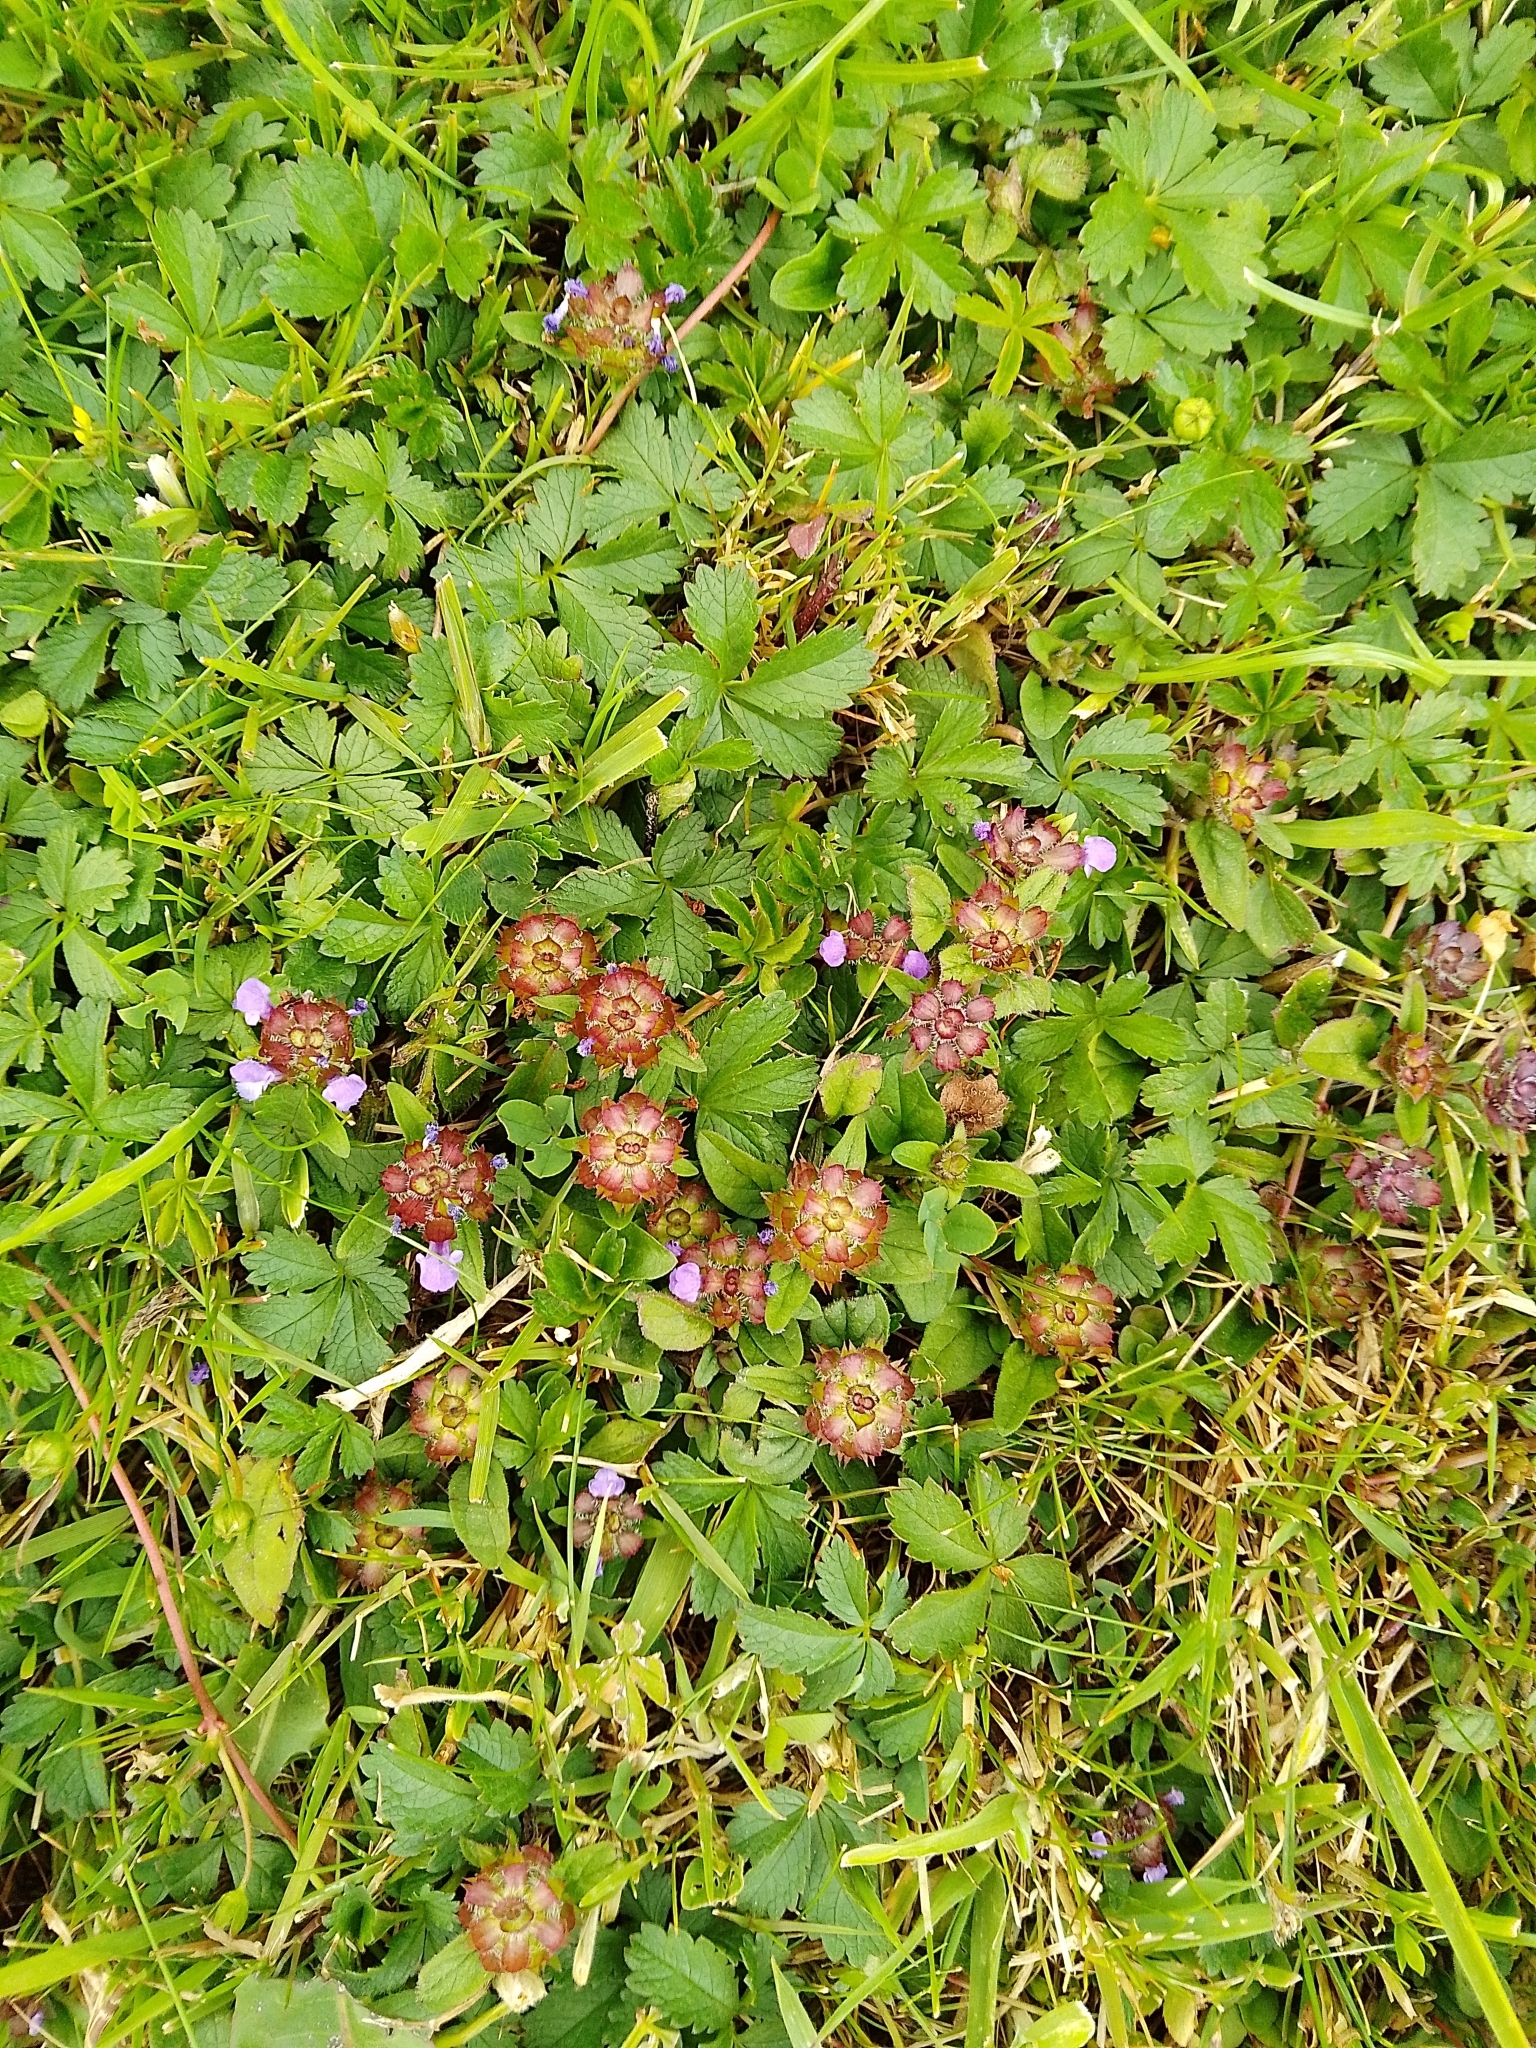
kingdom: Plantae
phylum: Tracheophyta
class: Magnoliopsida
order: Lamiales
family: Lamiaceae
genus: Prunella
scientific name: Prunella vulgaris
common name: Heal-all
